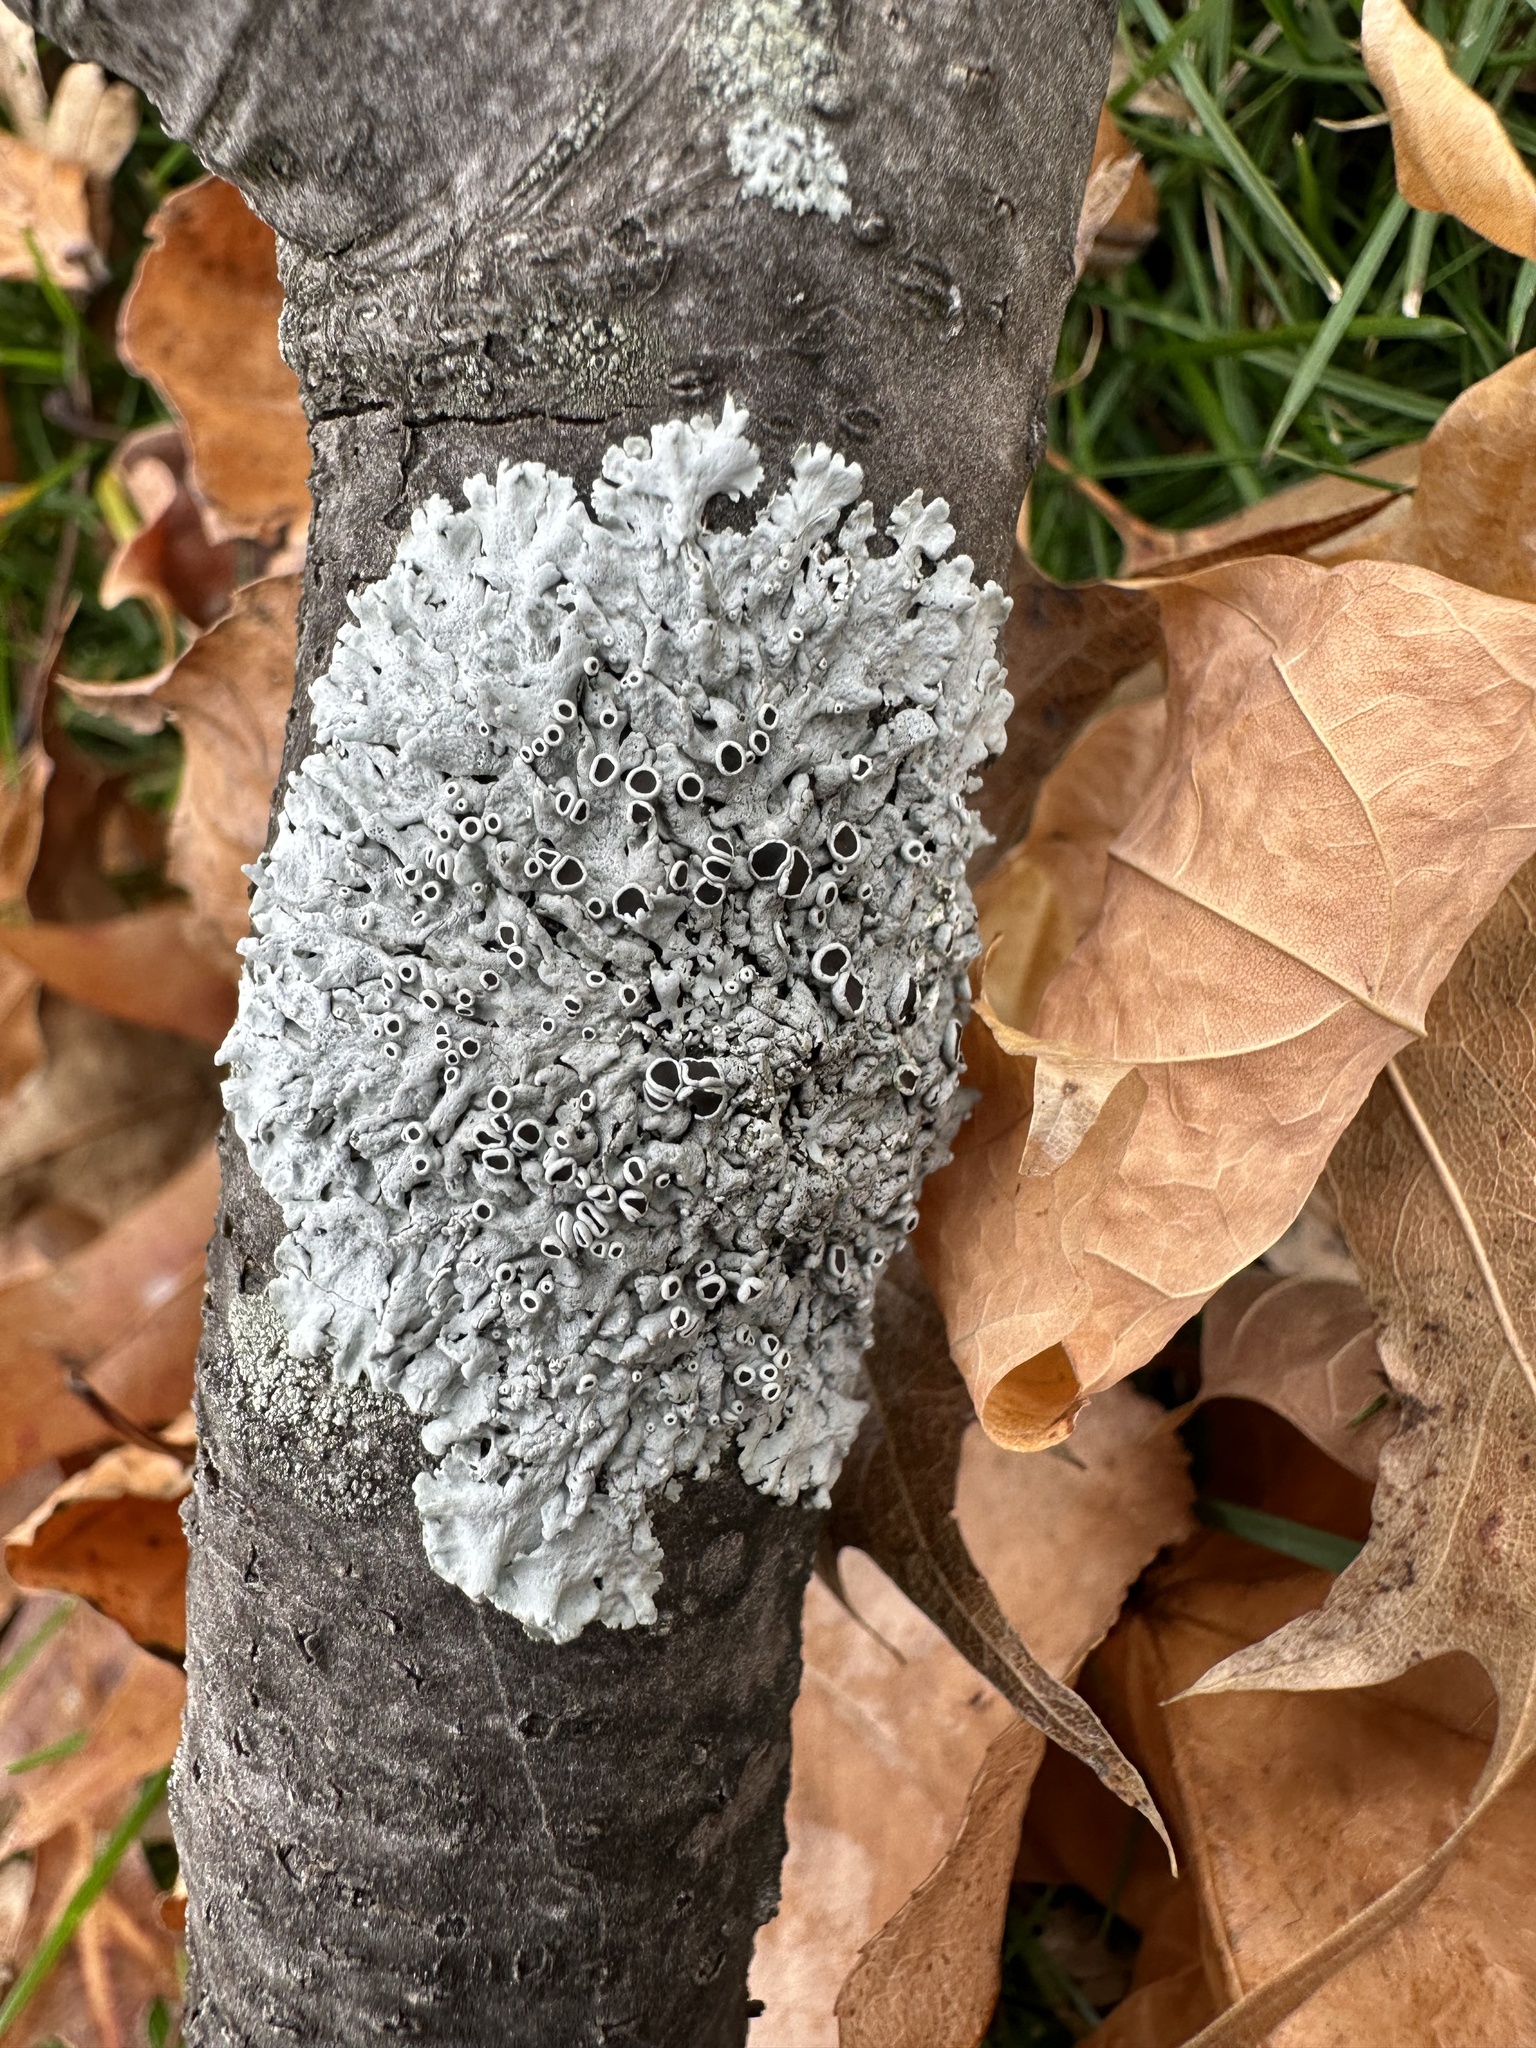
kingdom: Fungi
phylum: Ascomycota
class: Lecanoromycetes
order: Caliciales
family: Physciaceae
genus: Physcia
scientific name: Physcia stellaris
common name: Star rosette lichen
